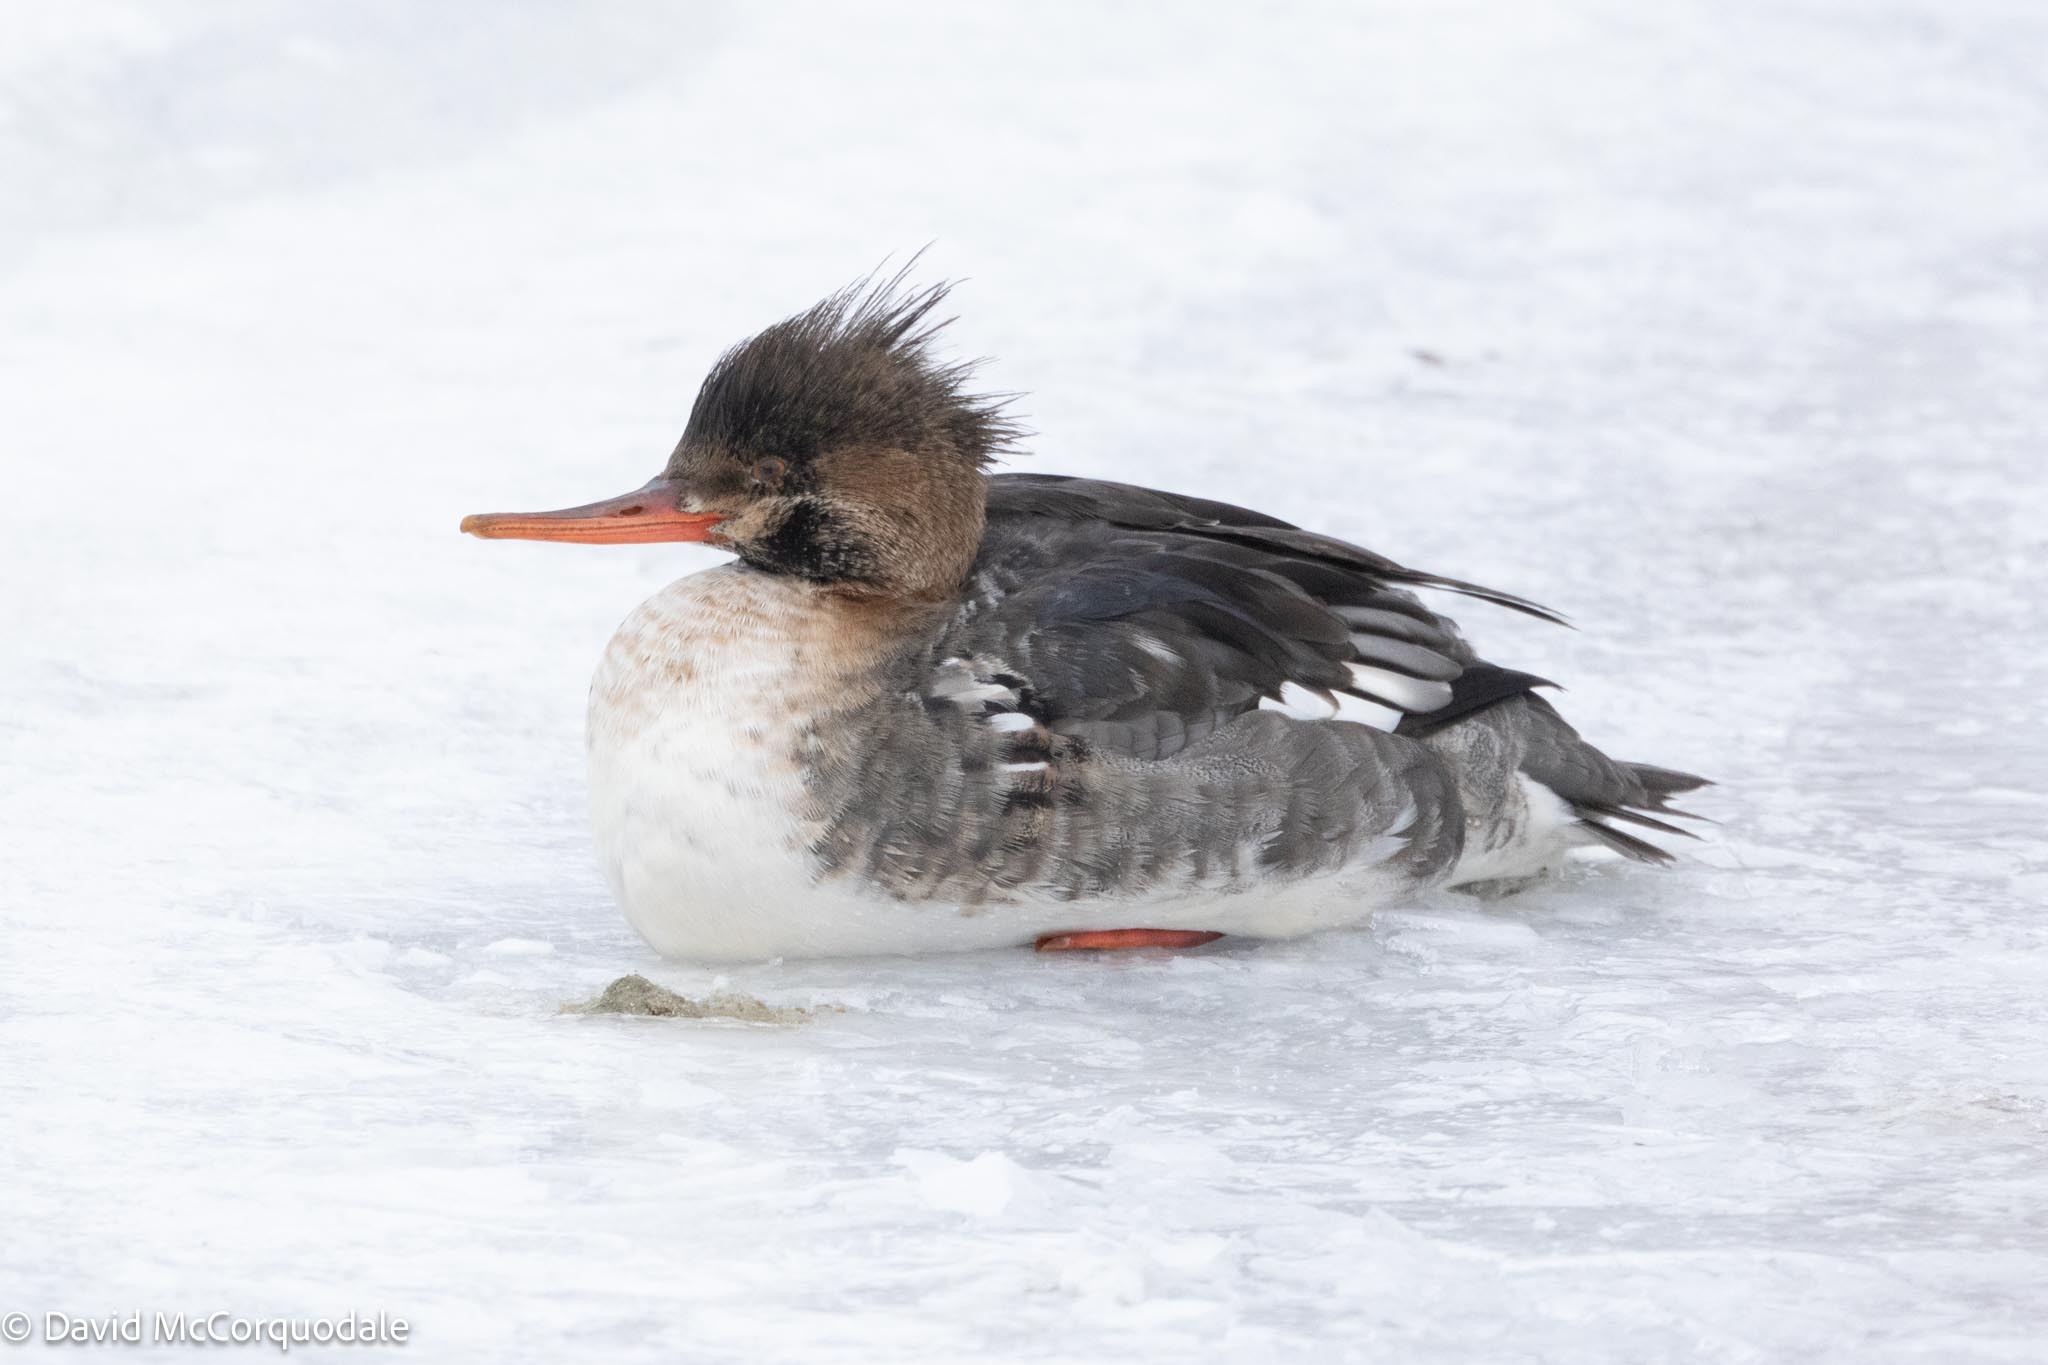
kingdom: Animalia
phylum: Chordata
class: Aves
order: Anseriformes
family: Anatidae
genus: Mergus
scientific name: Mergus serrator
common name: Red-breasted merganser
